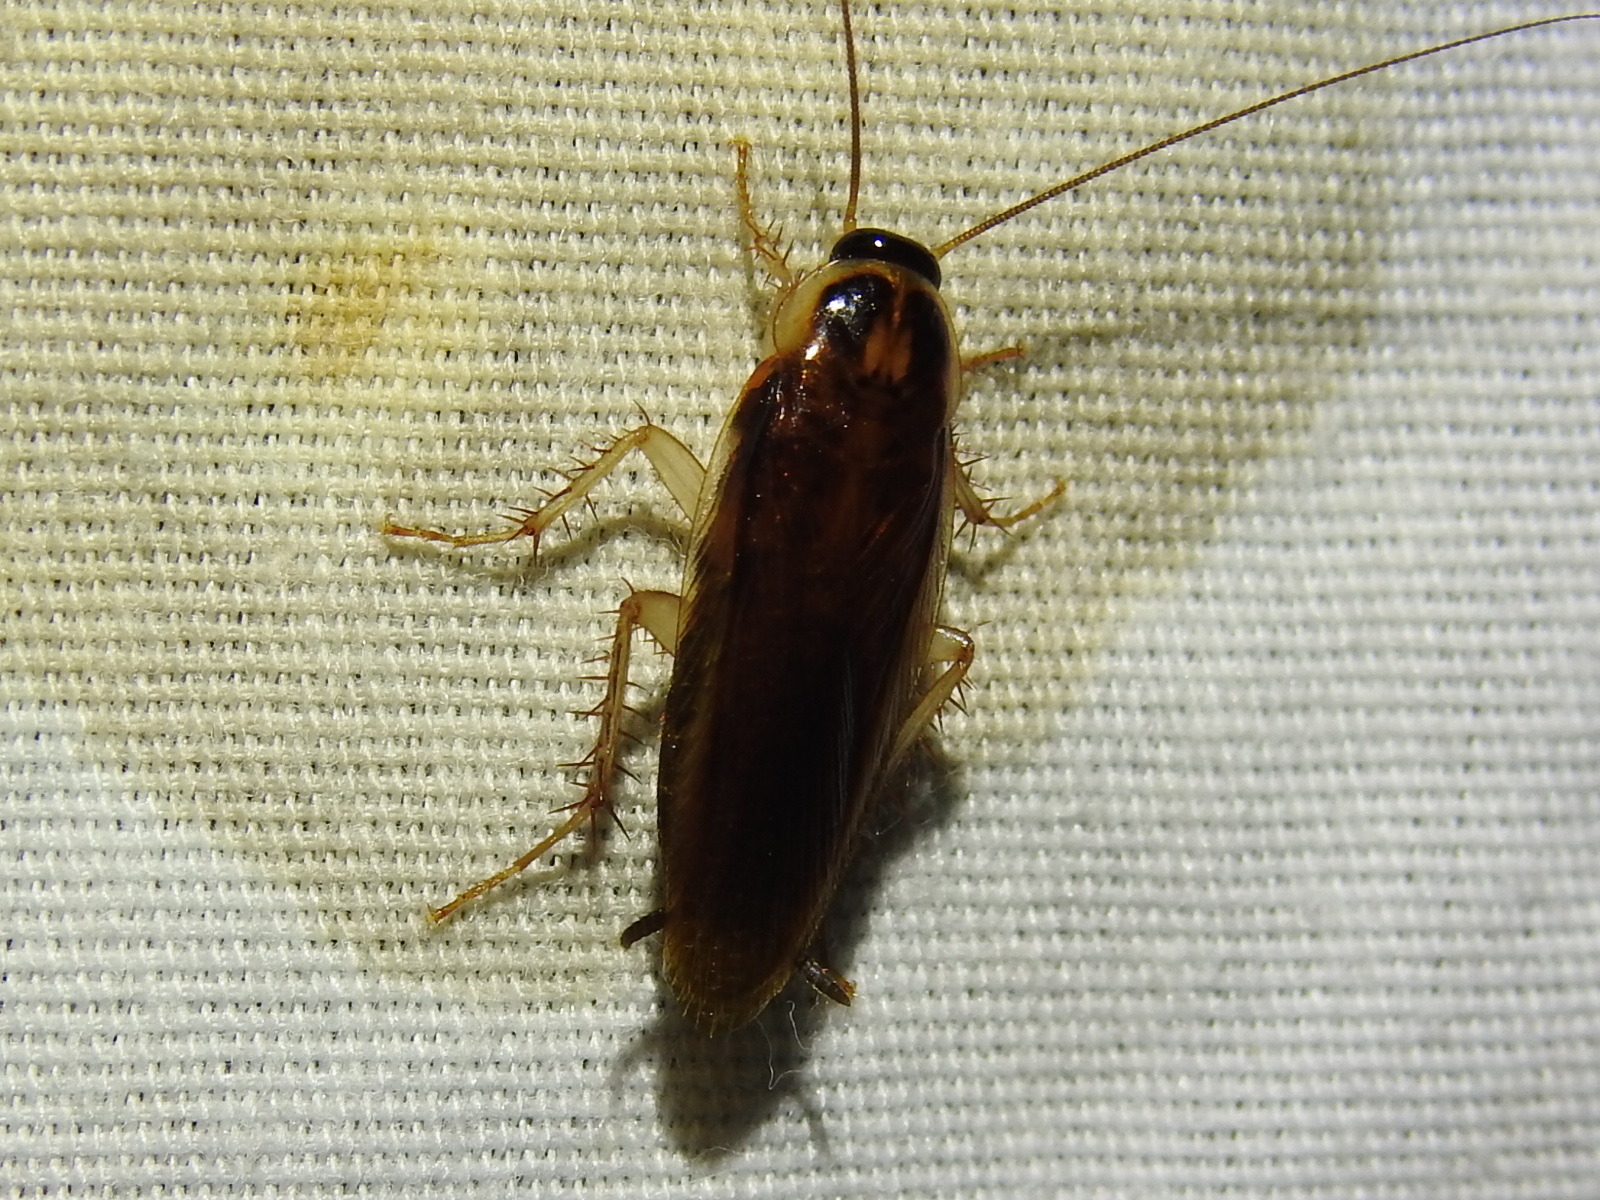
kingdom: Animalia
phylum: Arthropoda
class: Insecta
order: Blattodea
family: Ectobiidae
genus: Ischnoptera
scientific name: Ischnoptera bilunata
